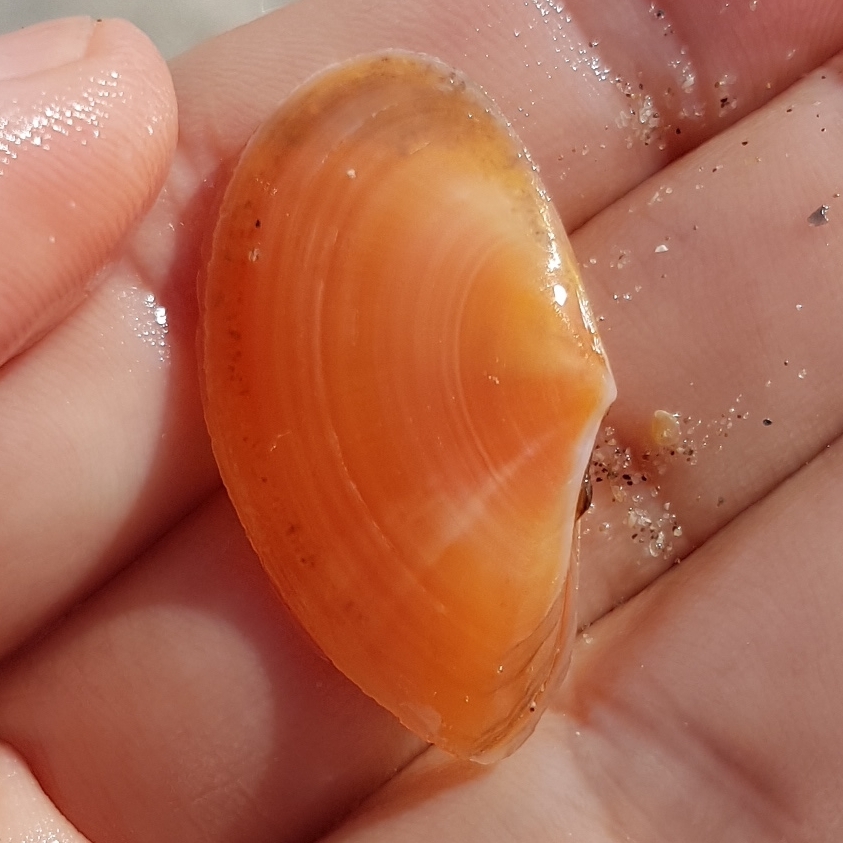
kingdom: Animalia
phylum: Mollusca
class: Bivalvia
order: Cardiida
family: Tellinidae
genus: Bosemprella
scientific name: Bosemprella incarnata
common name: Red tellin
